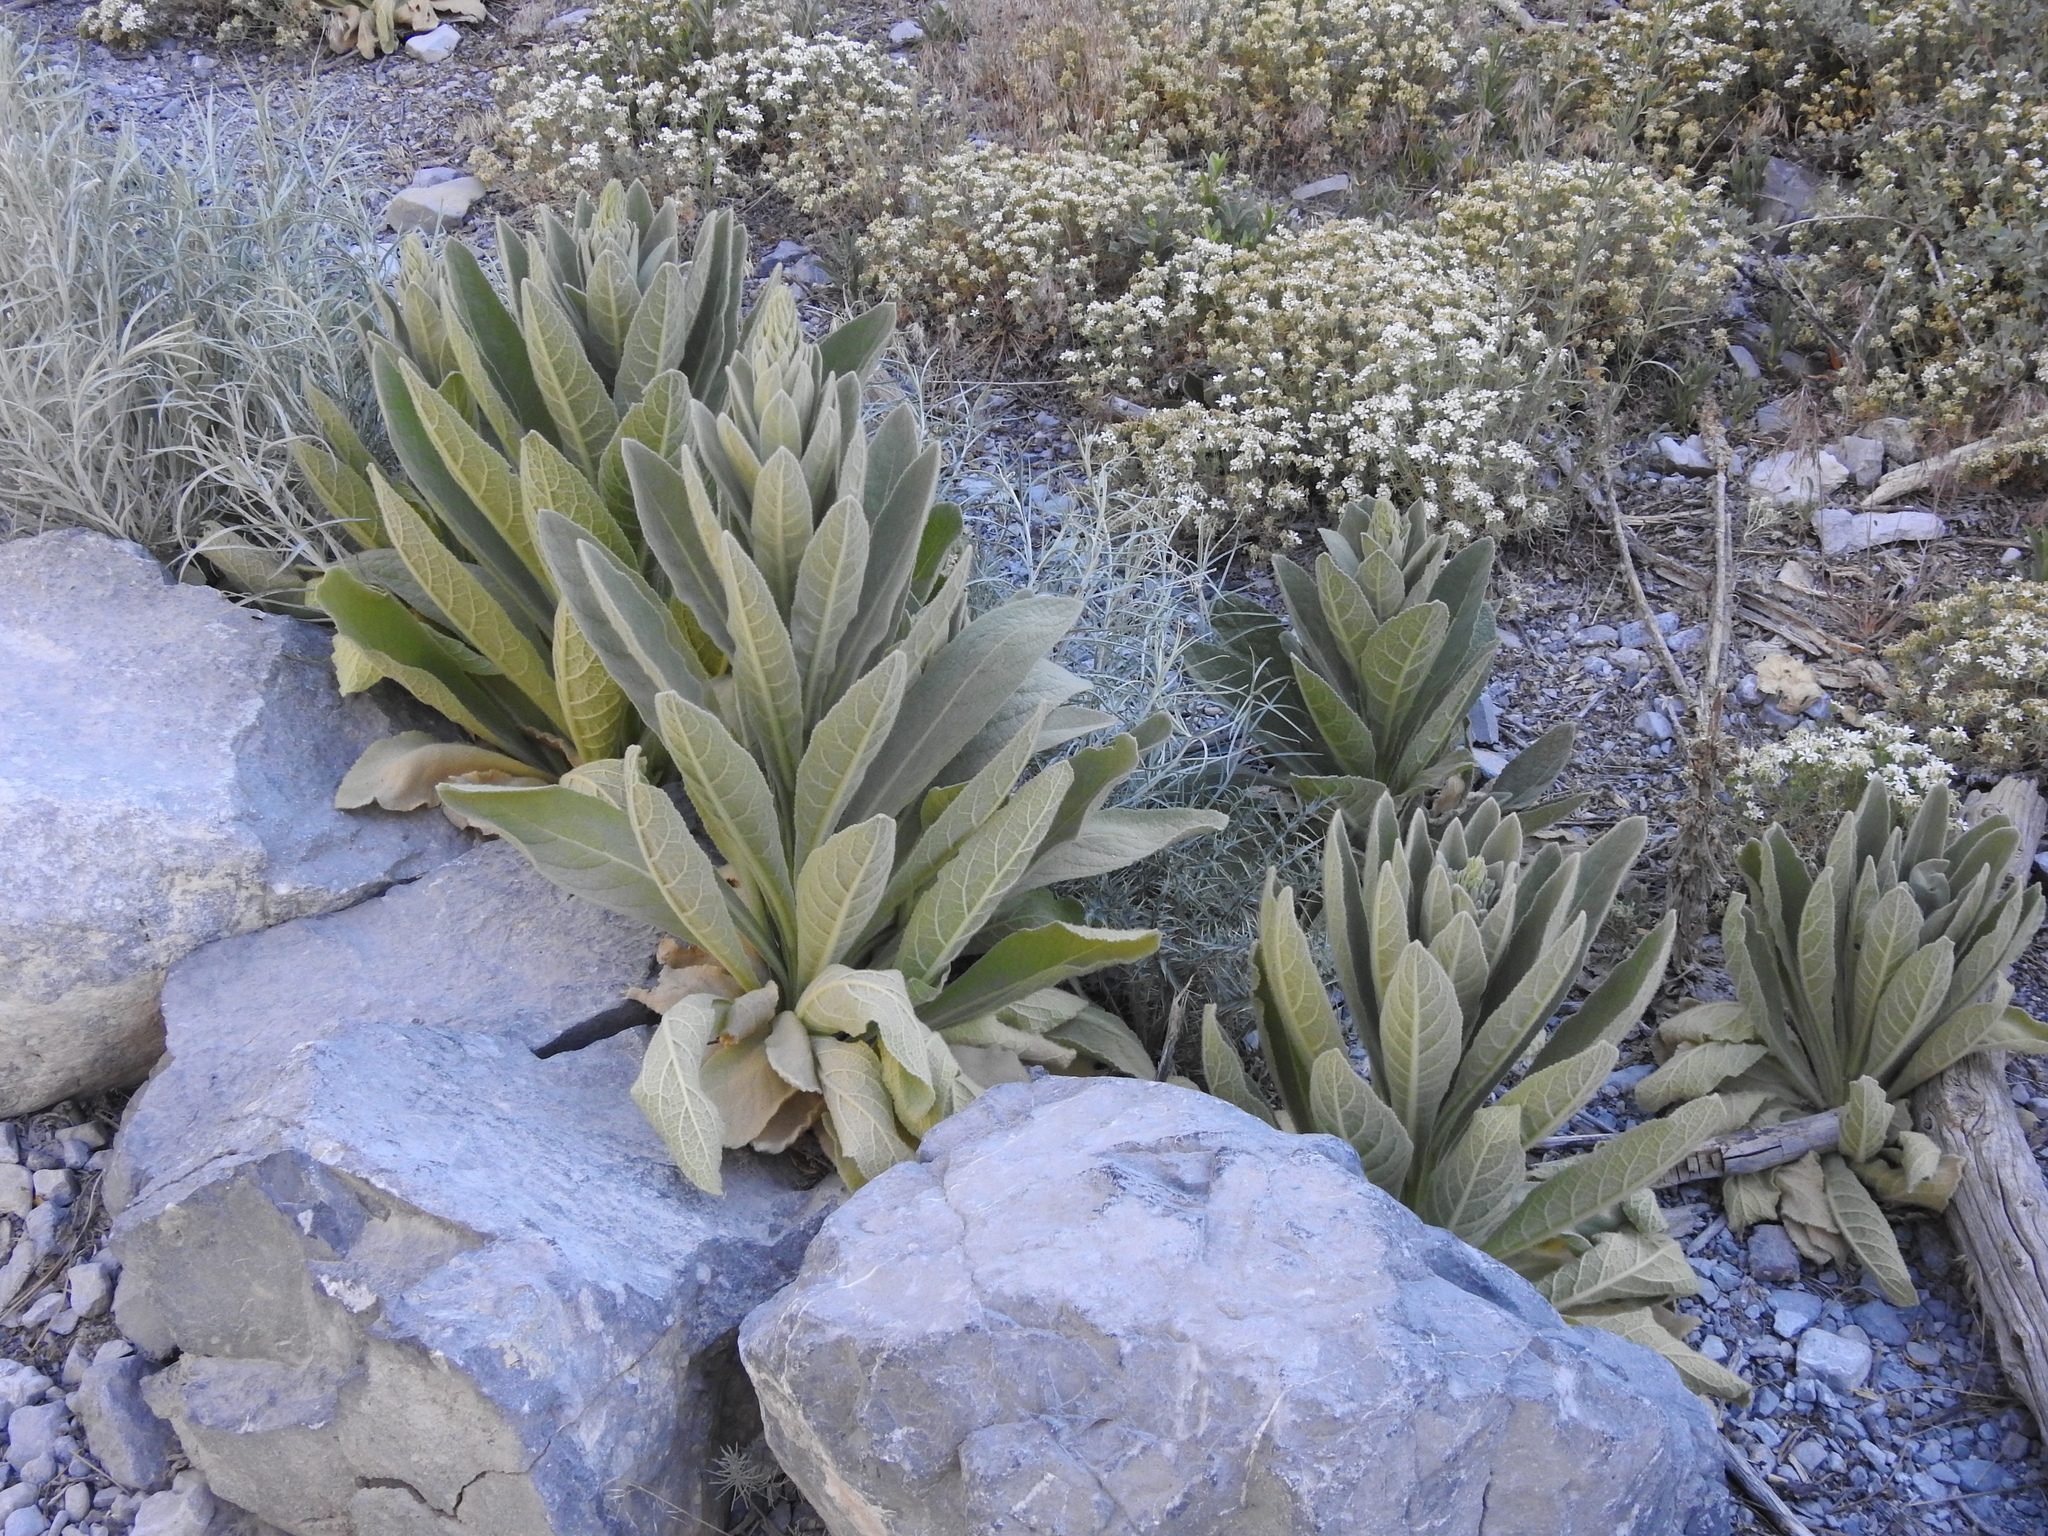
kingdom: Plantae
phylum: Tracheophyta
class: Magnoliopsida
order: Lamiales
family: Scrophulariaceae
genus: Verbascum
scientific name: Verbascum thapsus
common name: Common mullein
